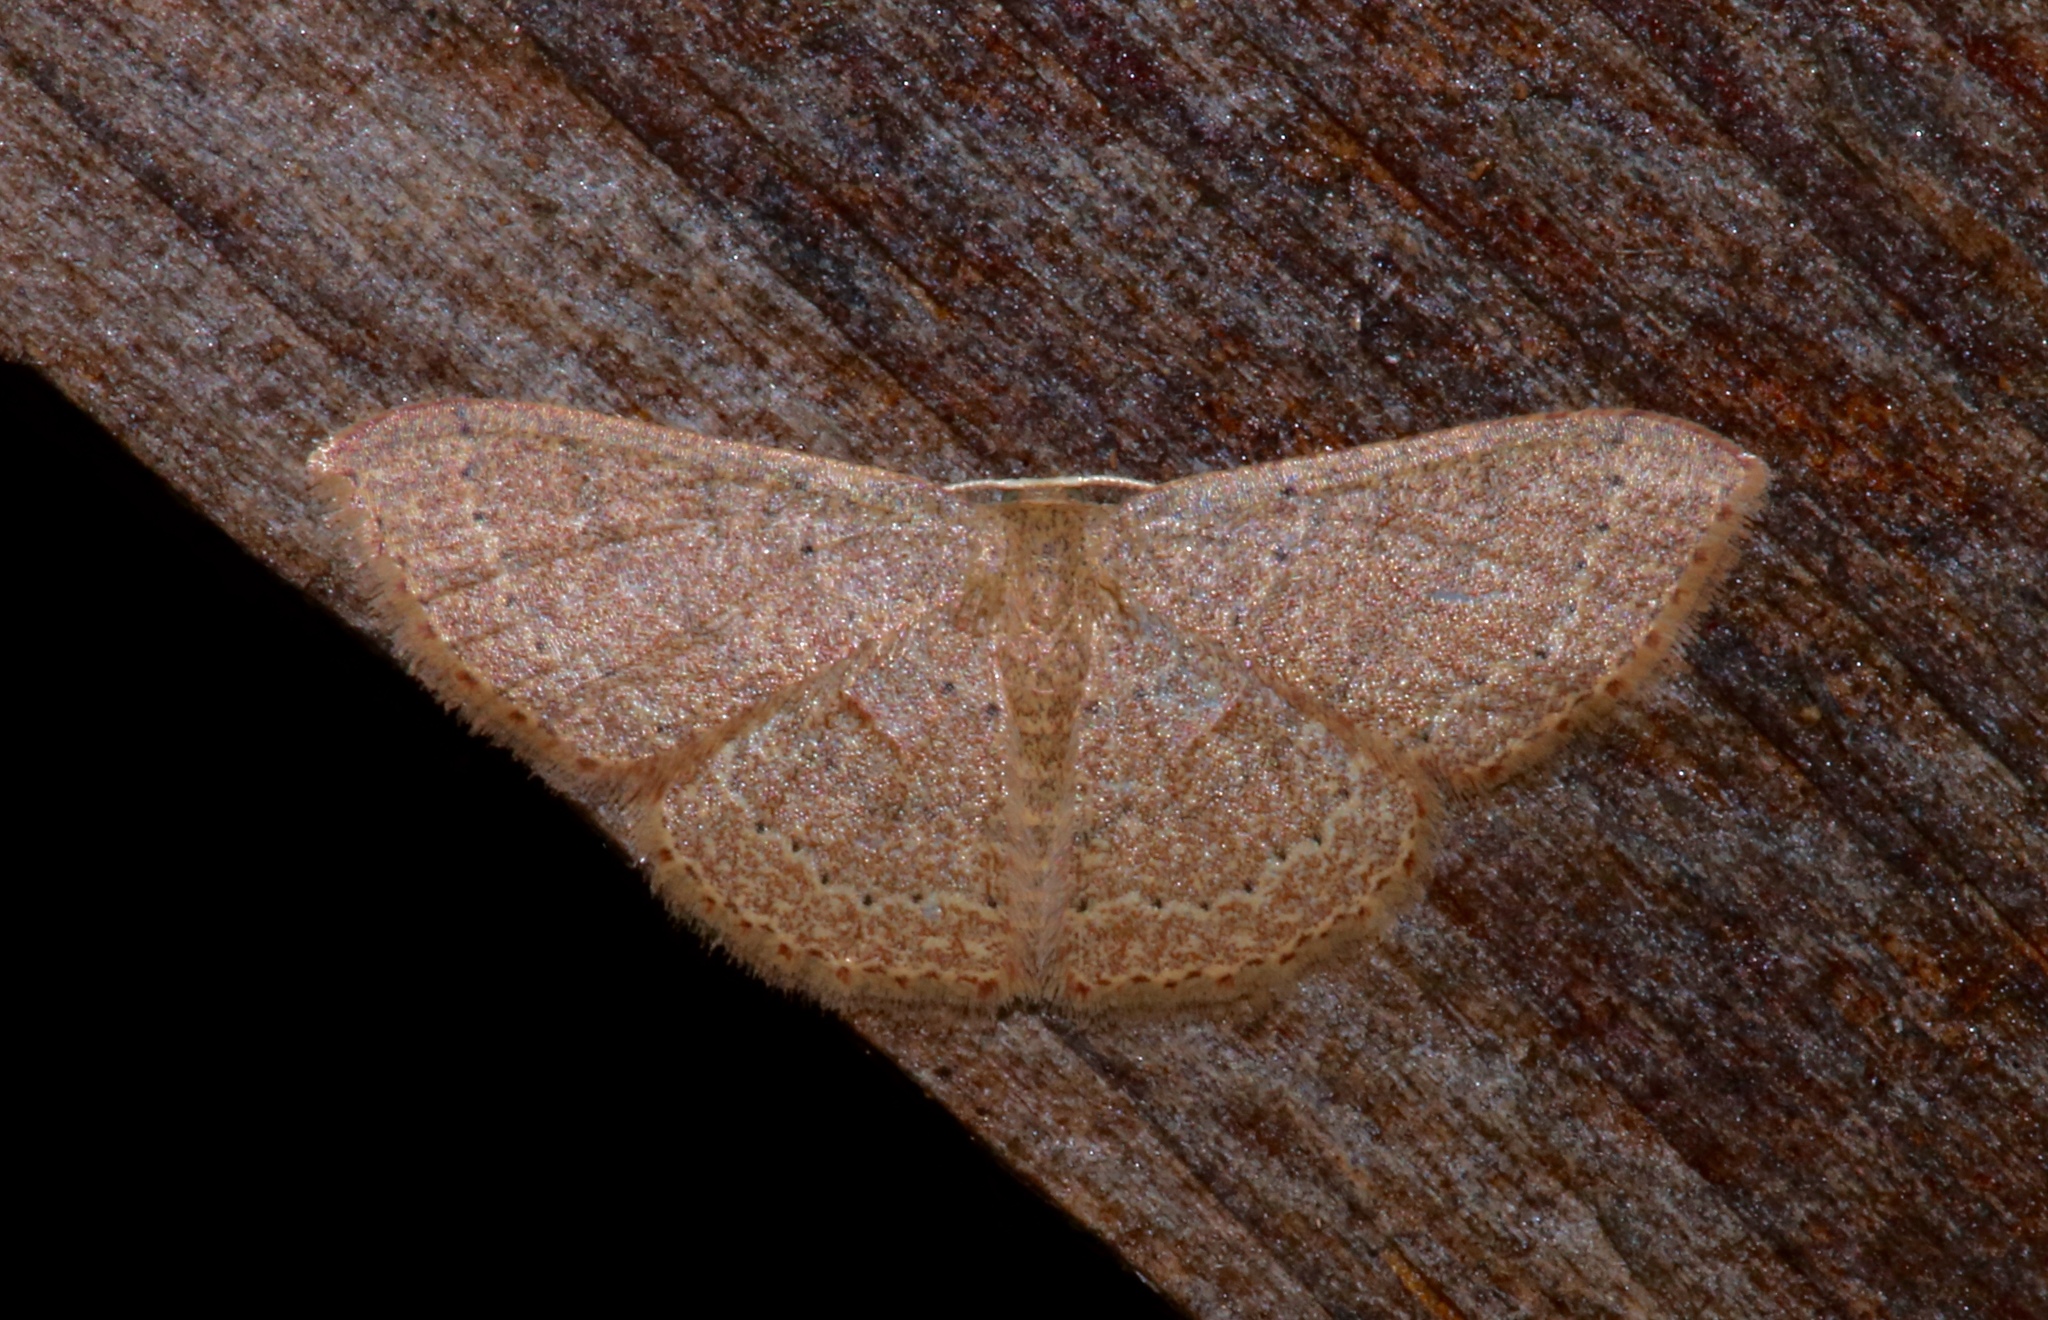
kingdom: Animalia
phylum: Arthropoda
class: Insecta
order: Lepidoptera
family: Geometridae
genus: Pleuroprucha
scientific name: Pleuroprucha insulsaria
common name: Common tan wave
